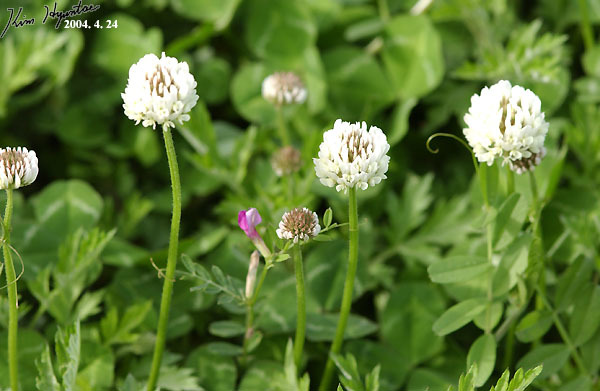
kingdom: Plantae
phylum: Tracheophyta
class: Magnoliopsida
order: Fabales
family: Fabaceae
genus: Trifolium
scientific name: Trifolium repens
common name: White clover
